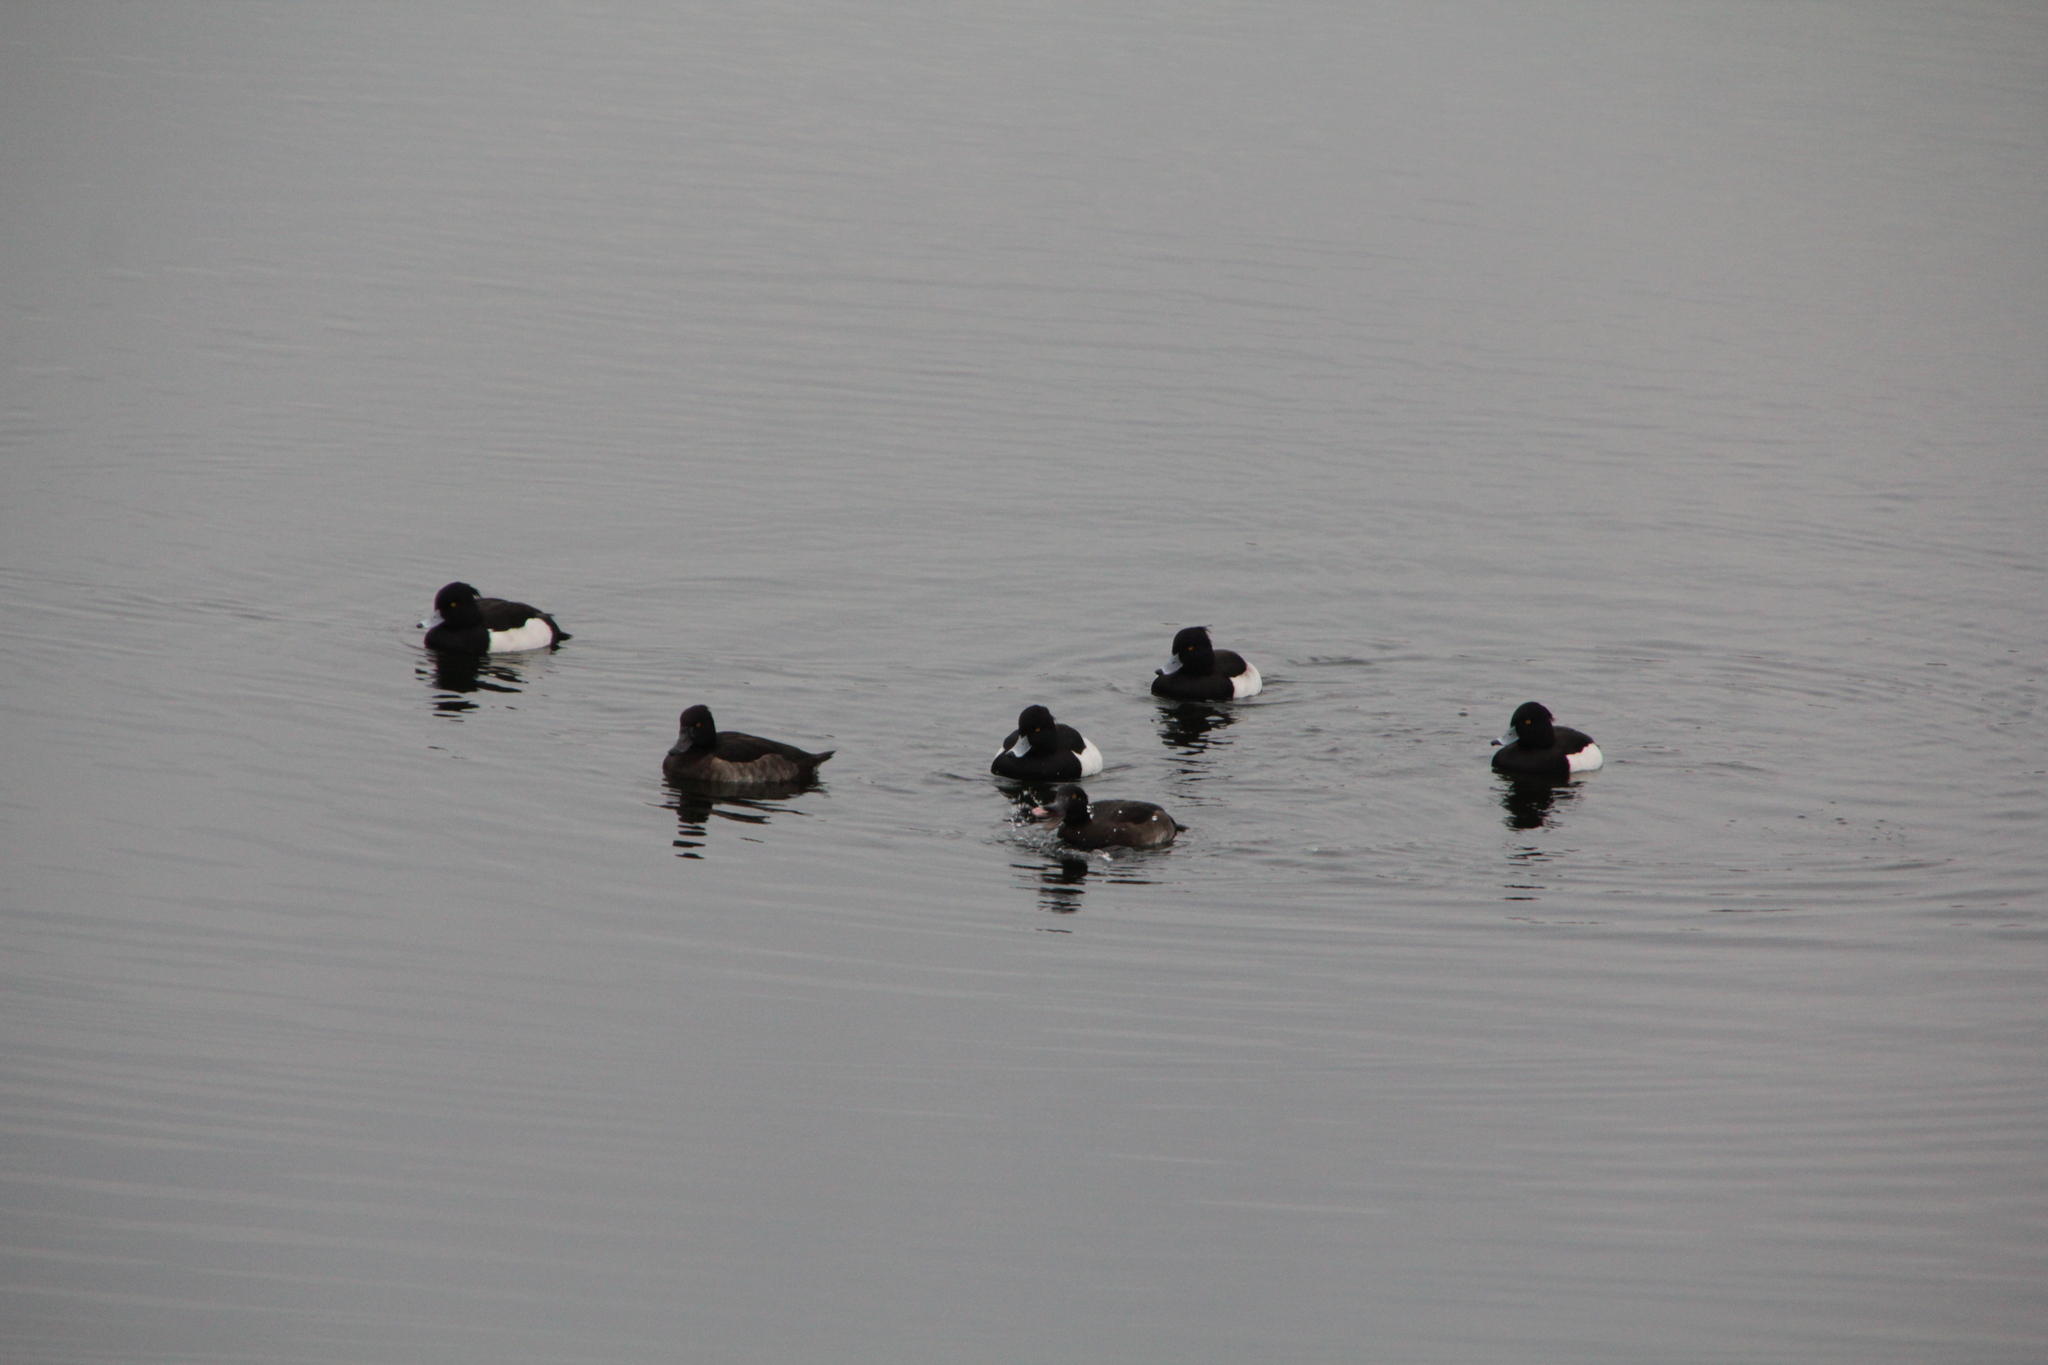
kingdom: Animalia
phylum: Chordata
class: Aves
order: Anseriformes
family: Anatidae
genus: Aythya
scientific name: Aythya fuligula
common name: Tufted duck
